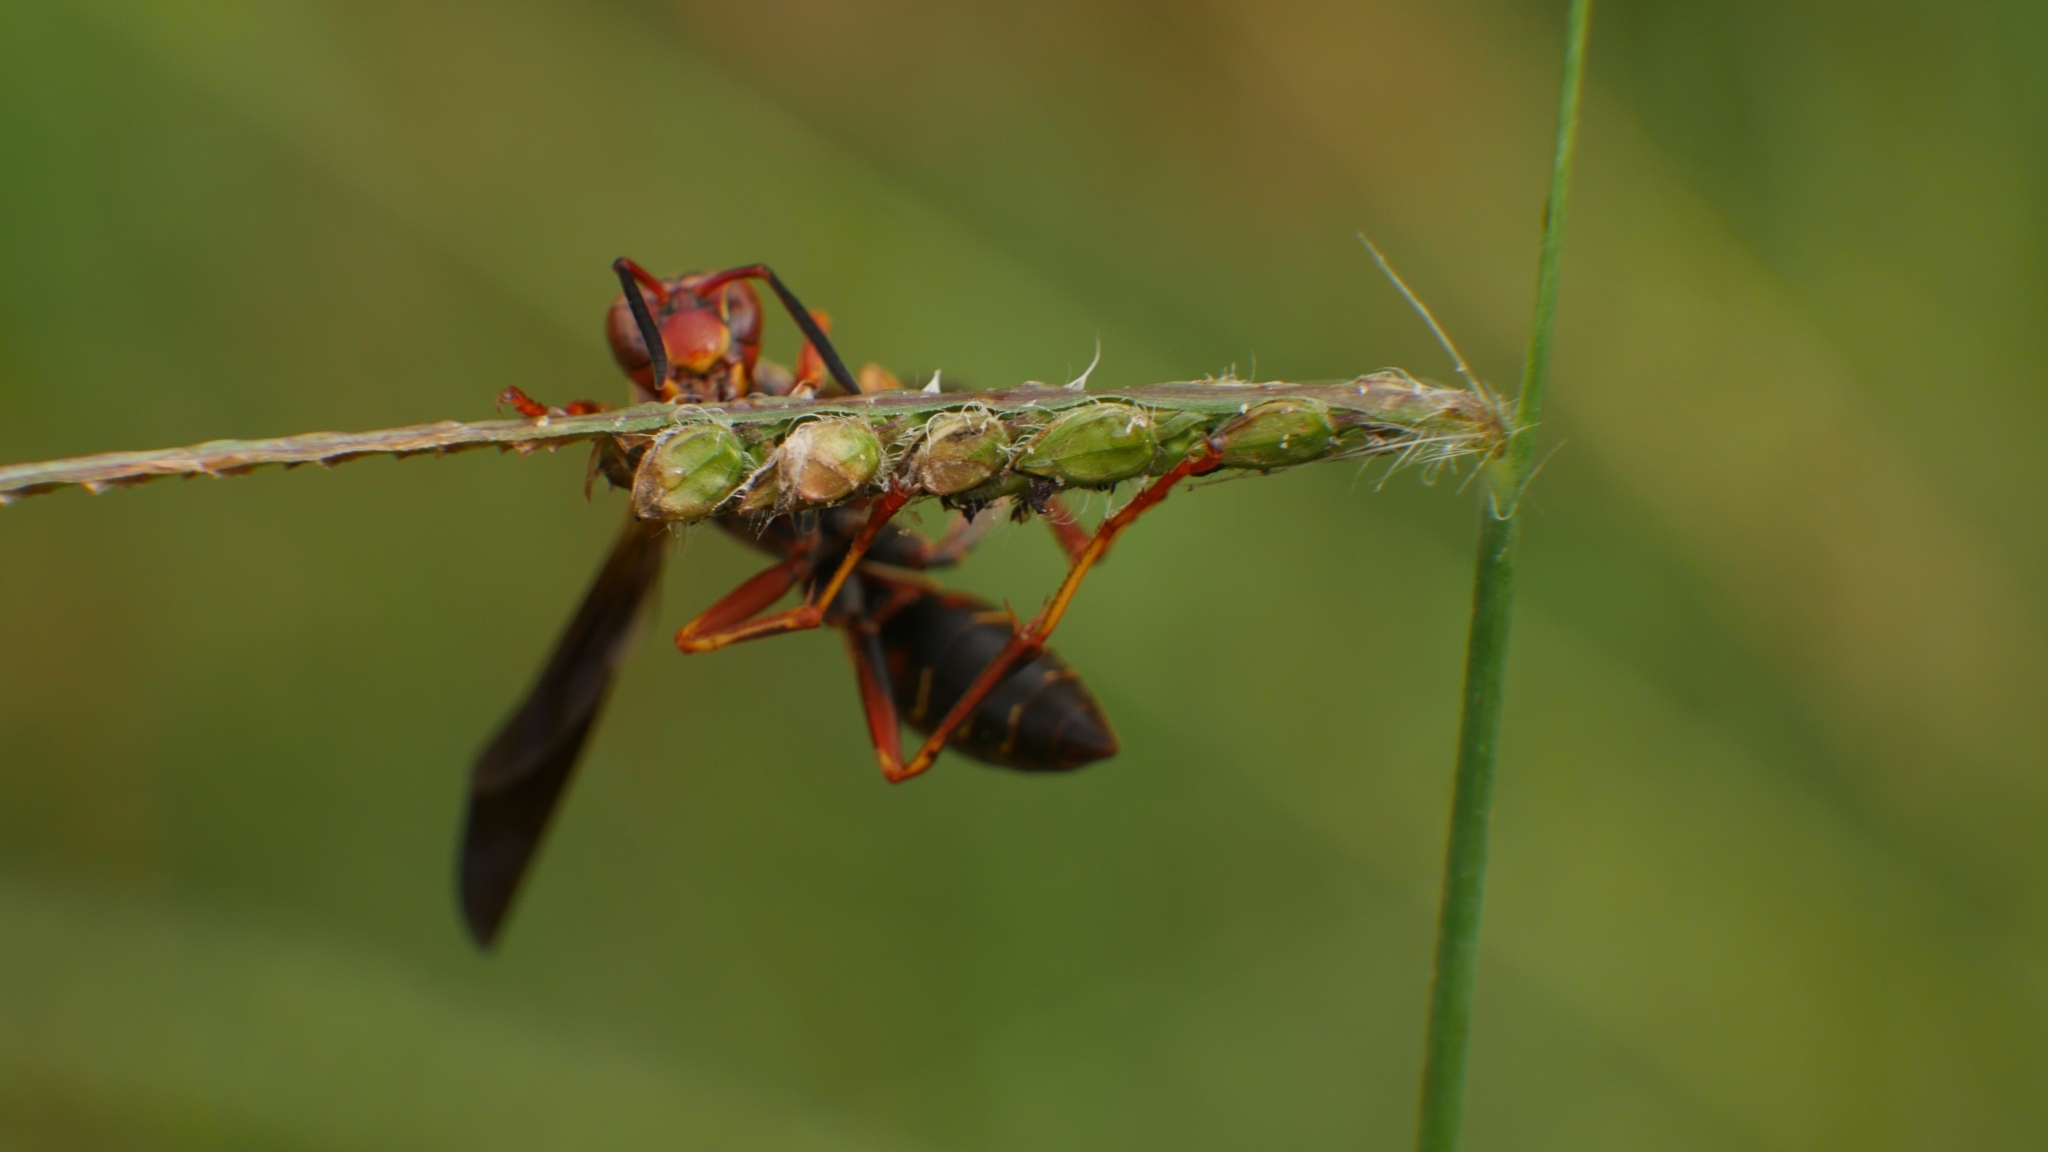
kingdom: Animalia
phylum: Arthropoda
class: Insecta
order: Hymenoptera
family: Eumenidae
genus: Polistes
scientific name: Polistes fuscatus
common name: Dark paper wasp
